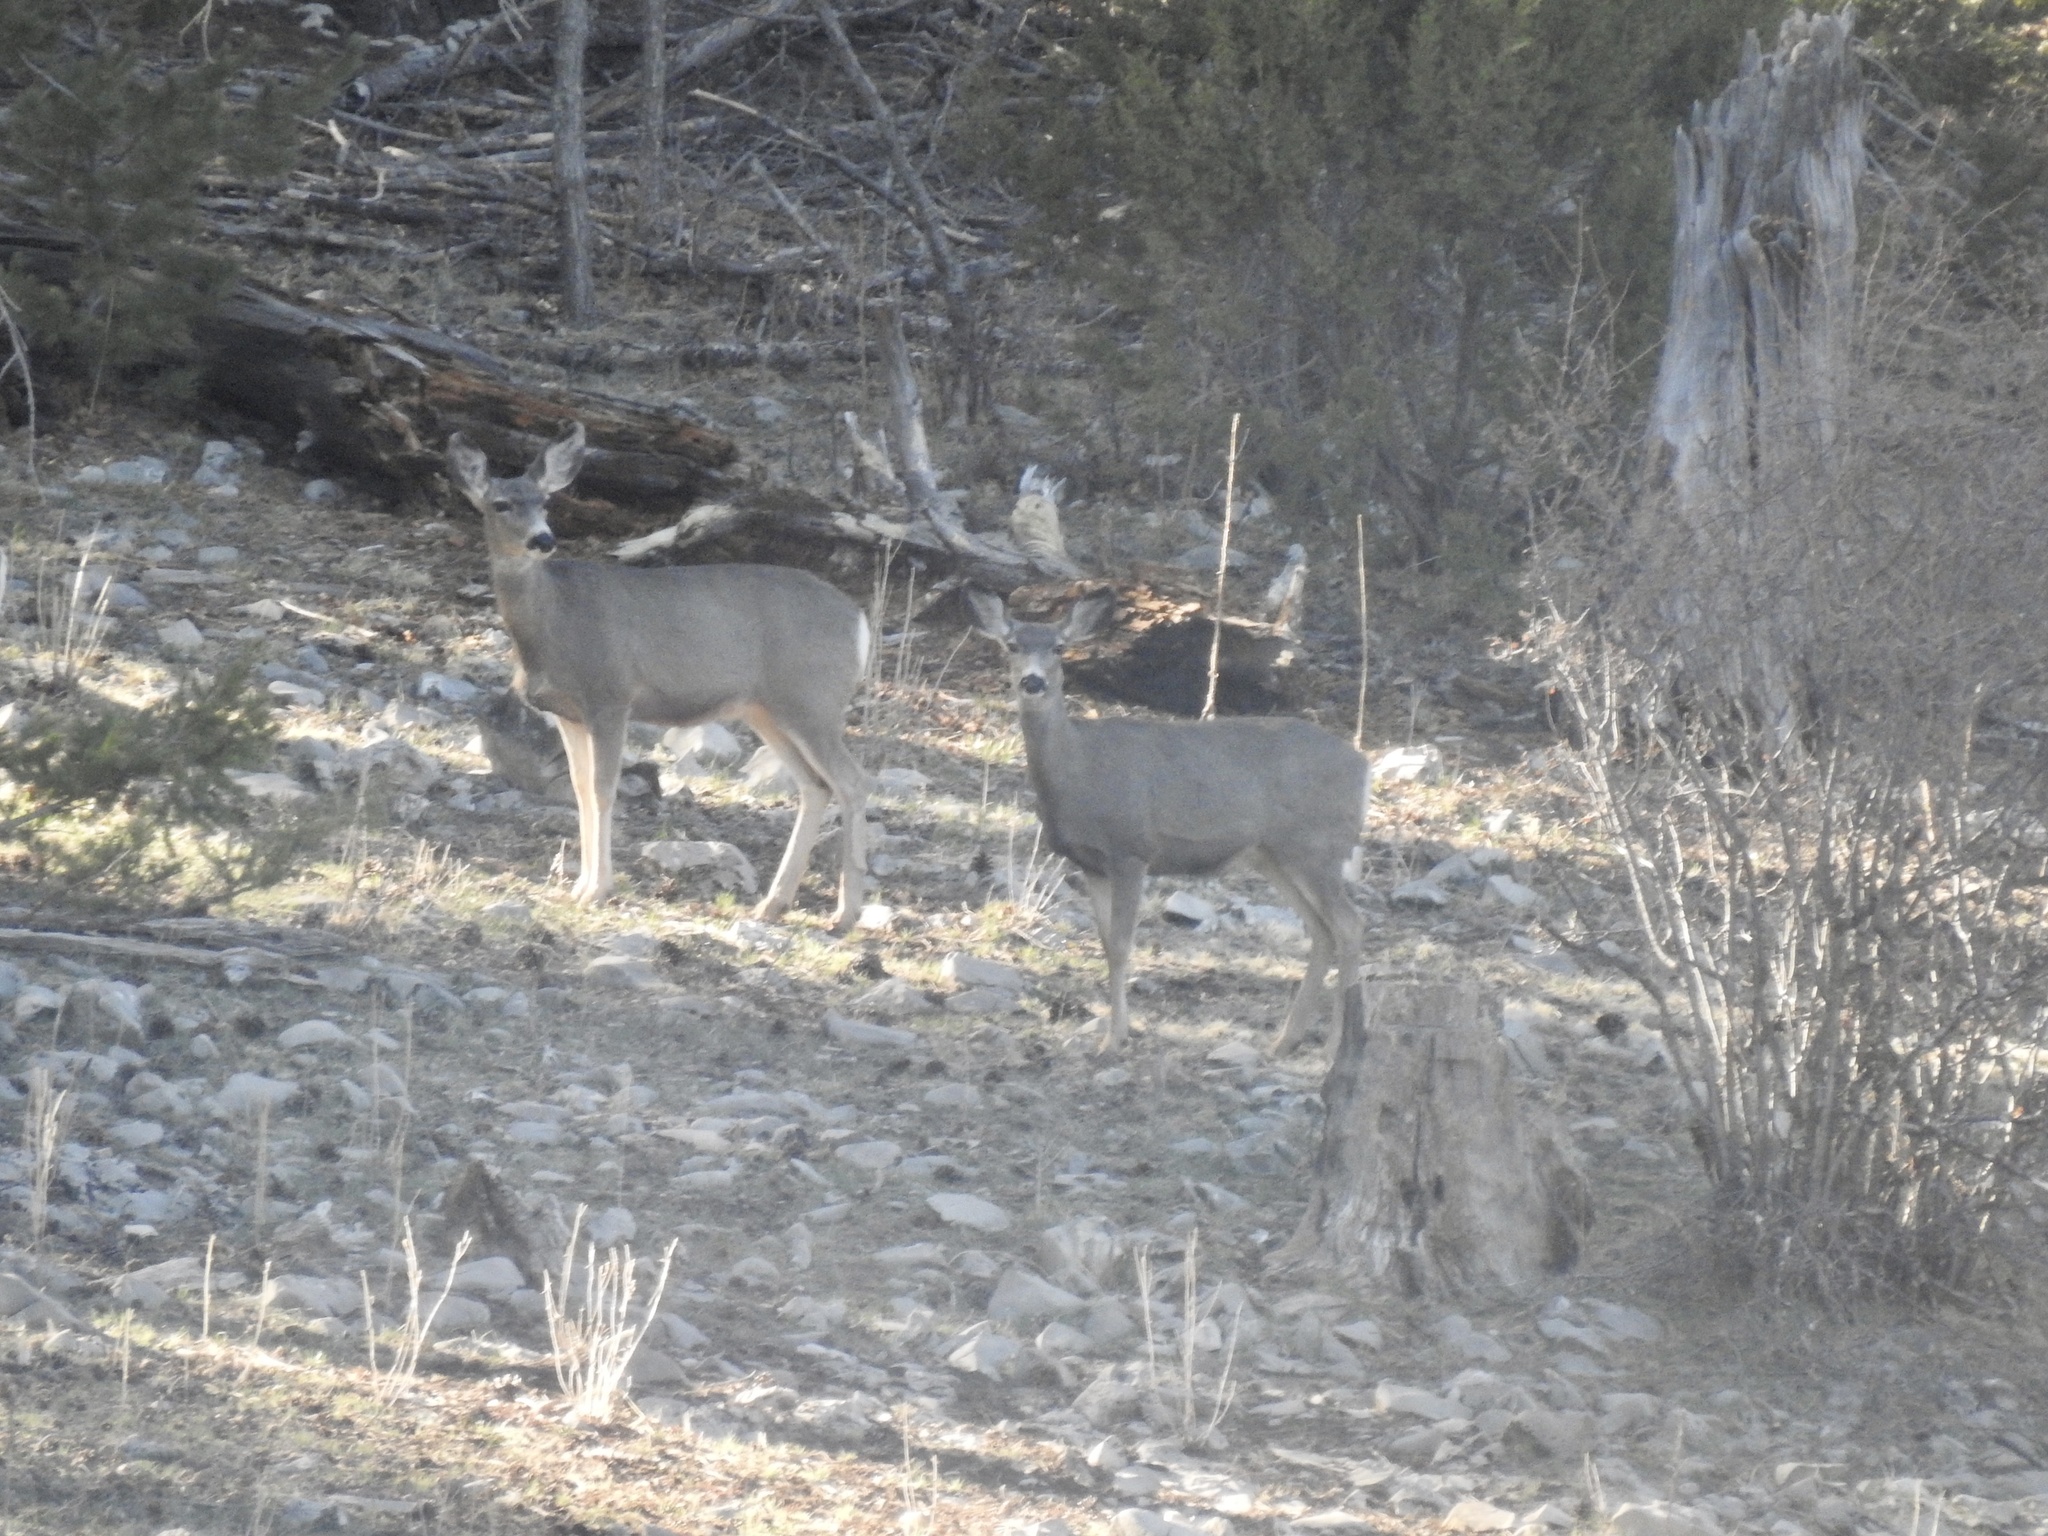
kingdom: Animalia
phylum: Chordata
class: Mammalia
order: Artiodactyla
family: Cervidae
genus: Odocoileus
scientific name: Odocoileus hemionus
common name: Mule deer
